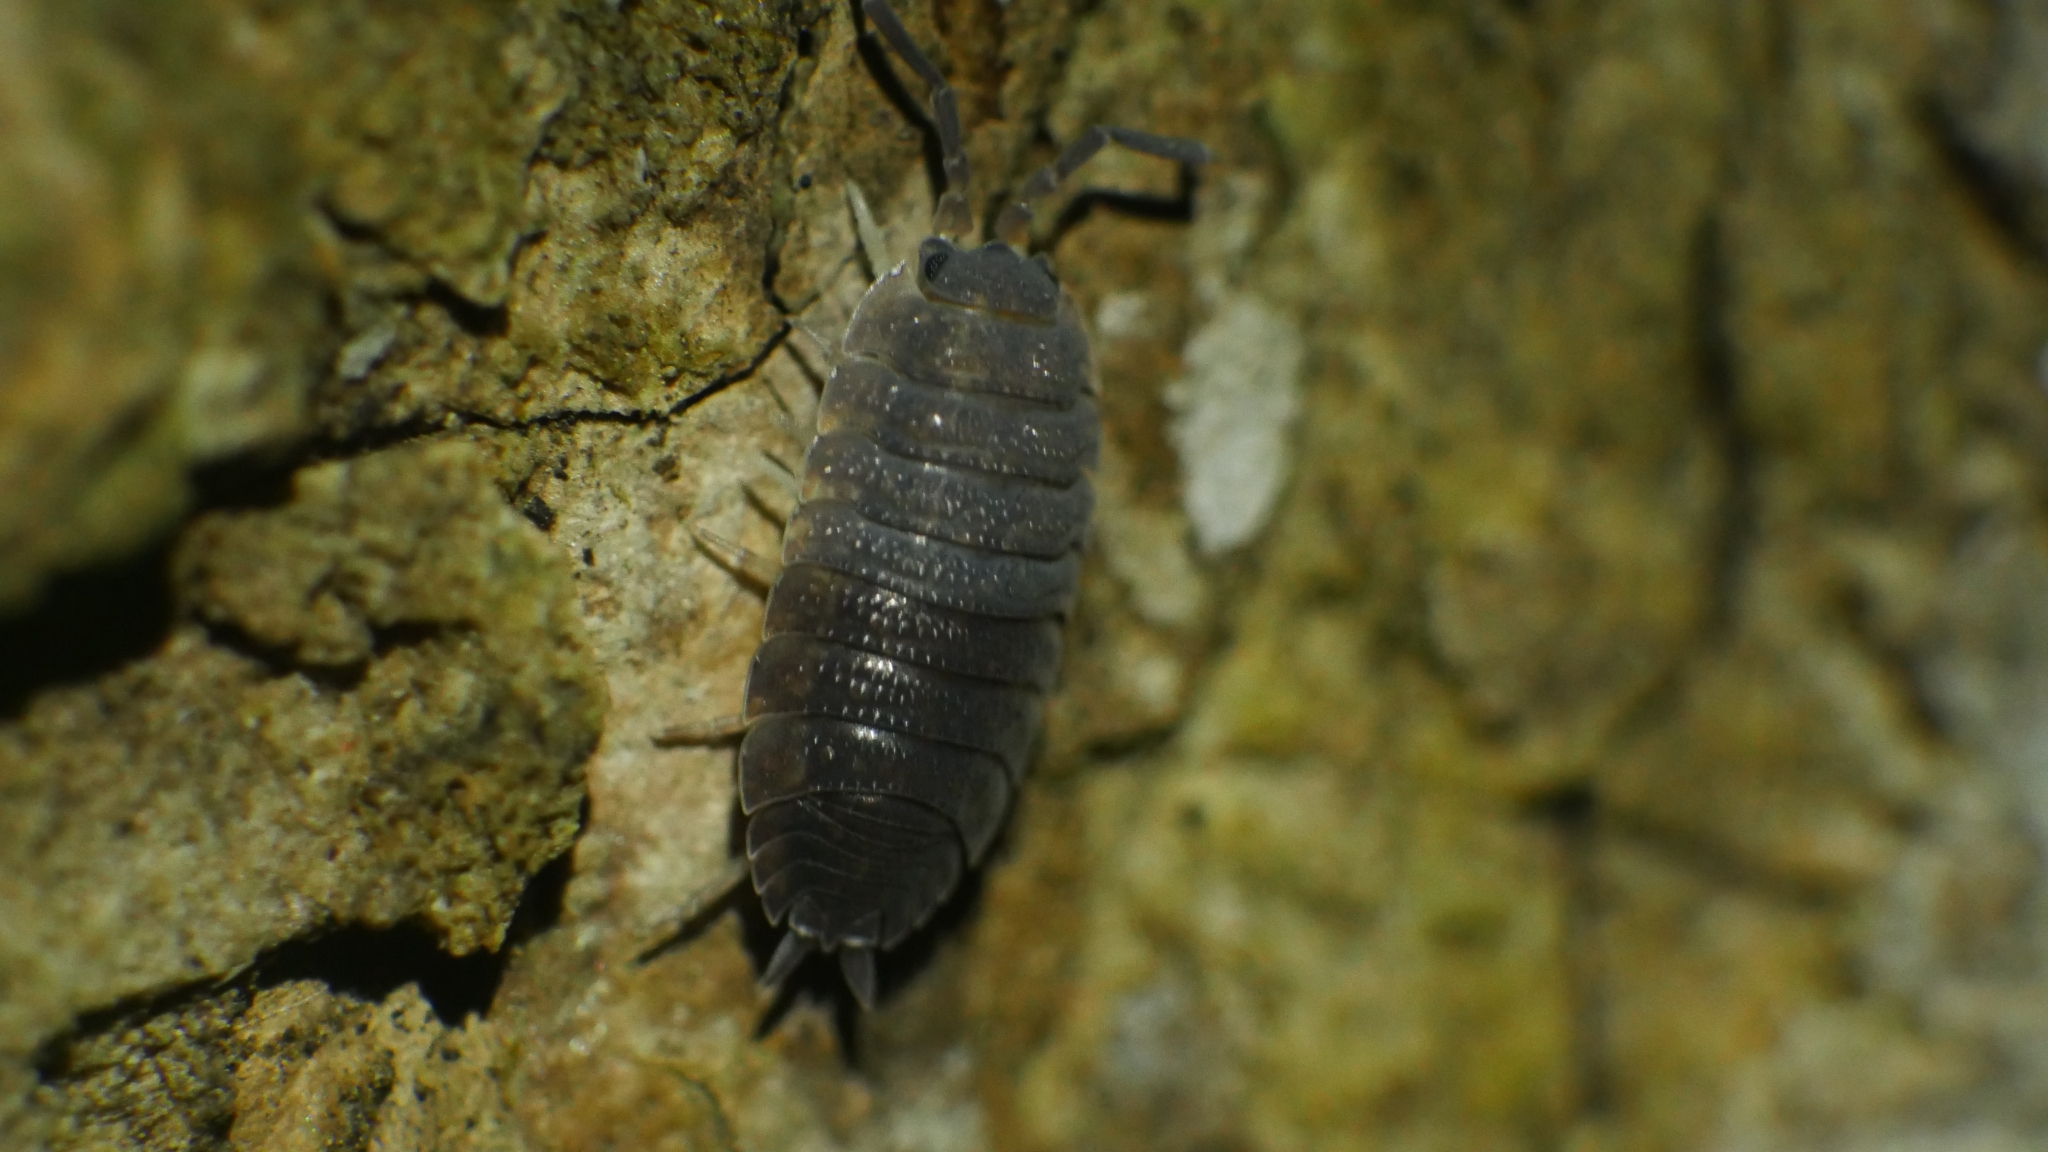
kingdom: Animalia
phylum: Arthropoda
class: Malacostraca
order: Isopoda
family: Porcellionidae
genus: Porcellio
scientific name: Porcellio scaber
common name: Common rough woodlouse
